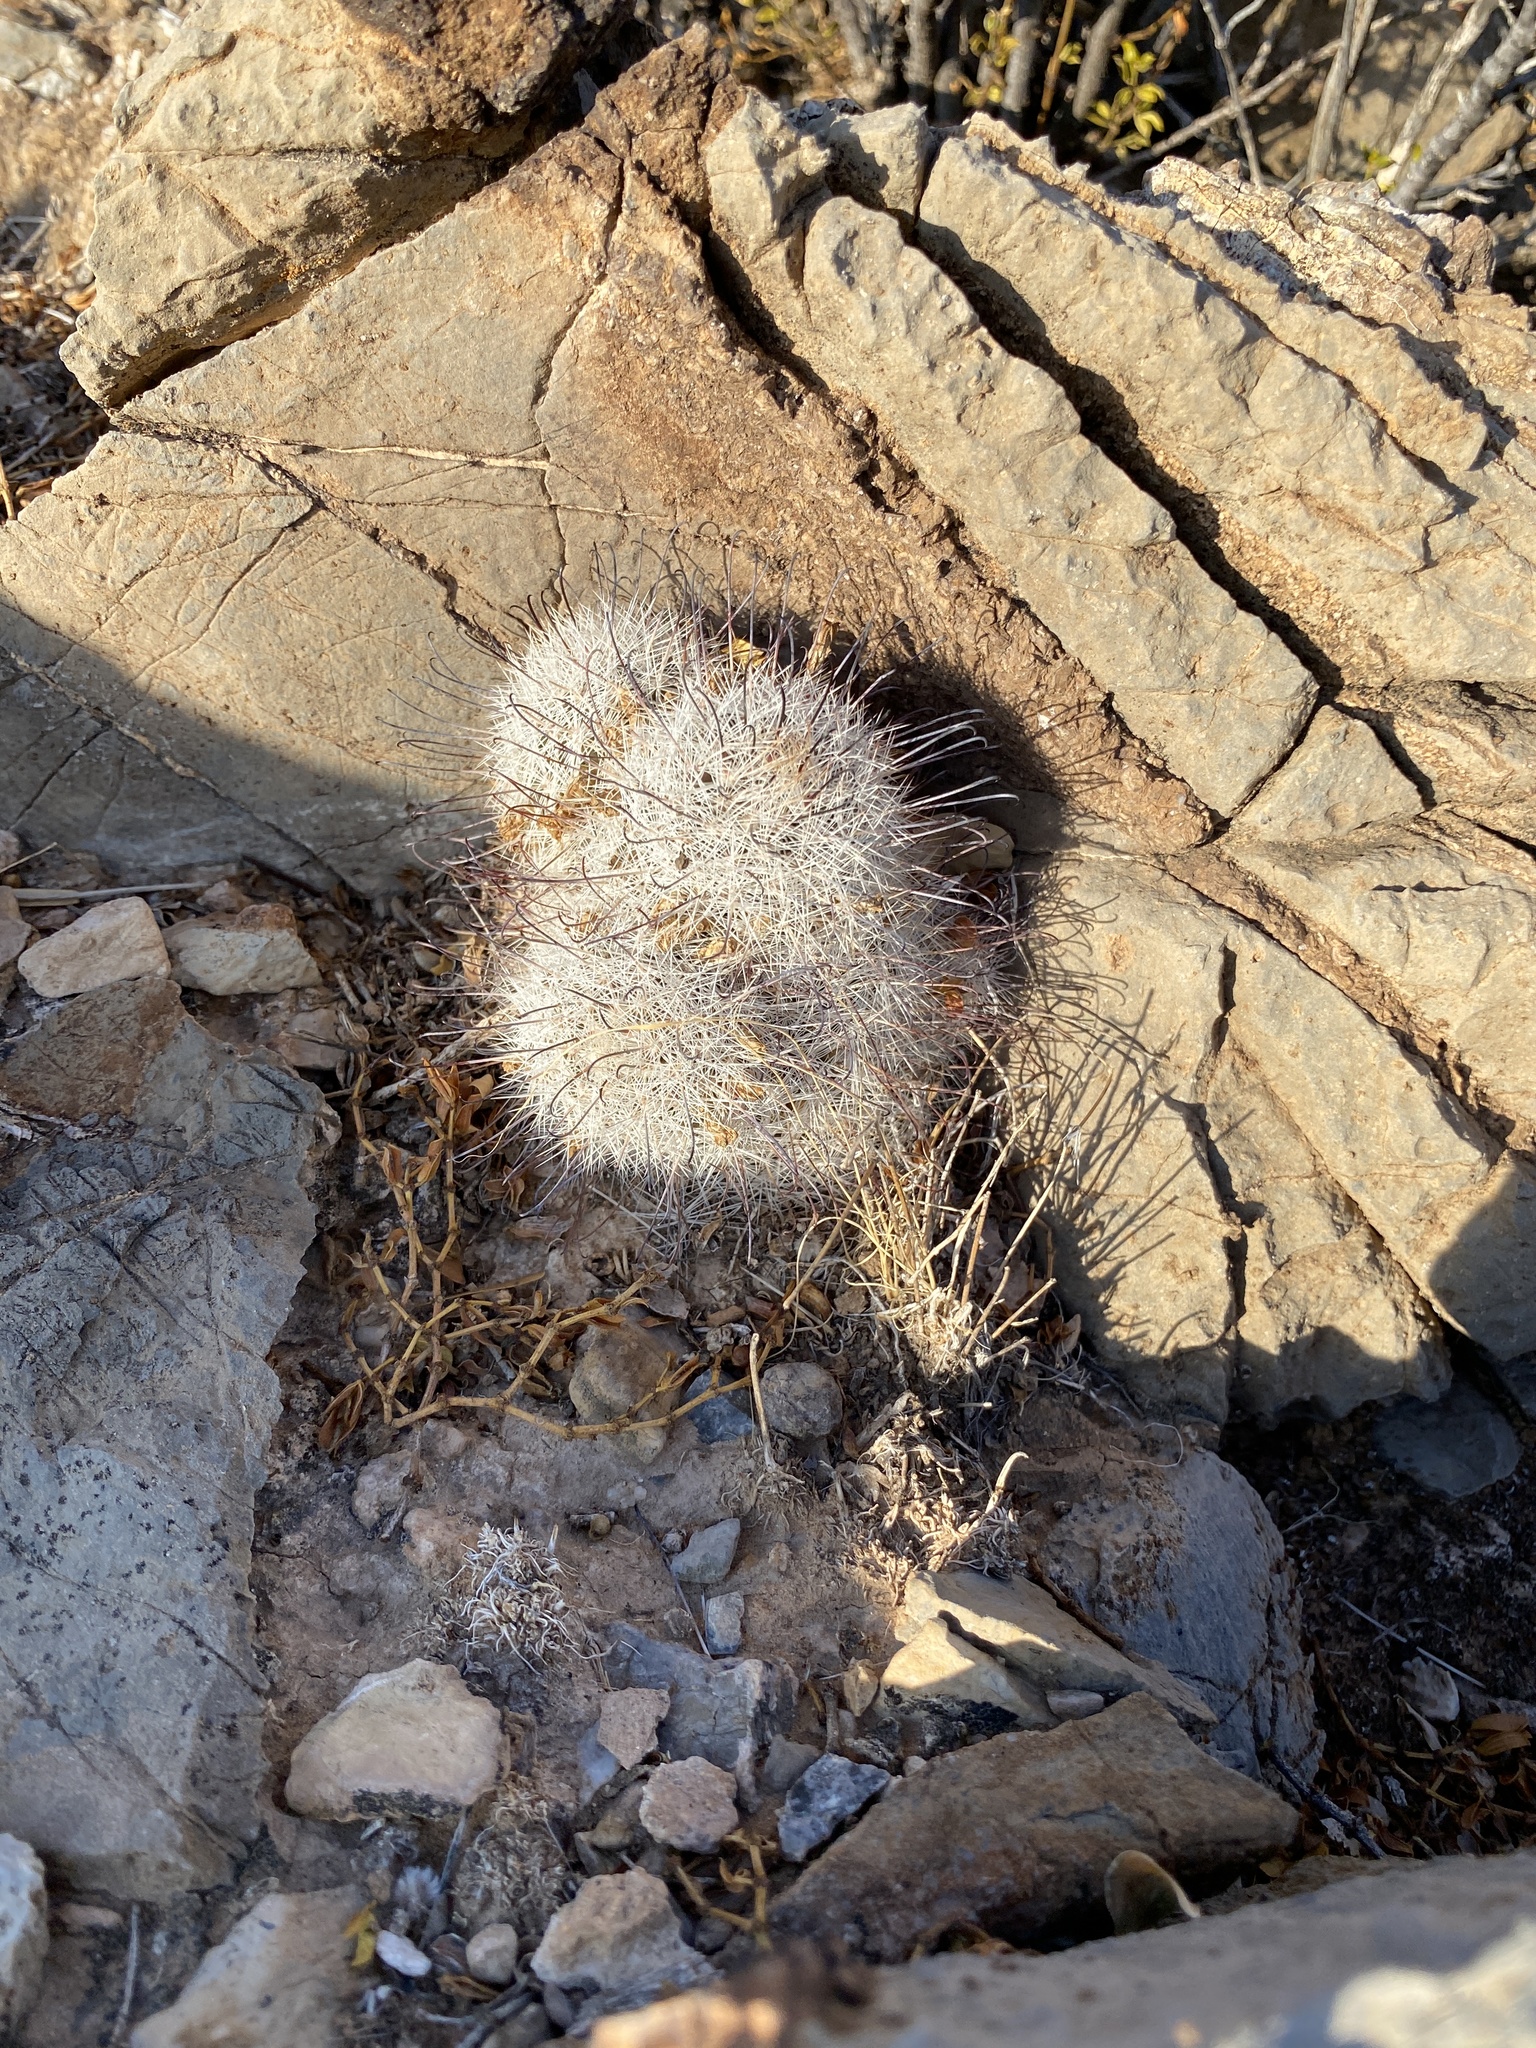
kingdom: Plantae
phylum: Tracheophyta
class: Magnoliopsida
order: Caryophyllales
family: Cactaceae
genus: Cochemiea
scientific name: Cochemiea grahamii
